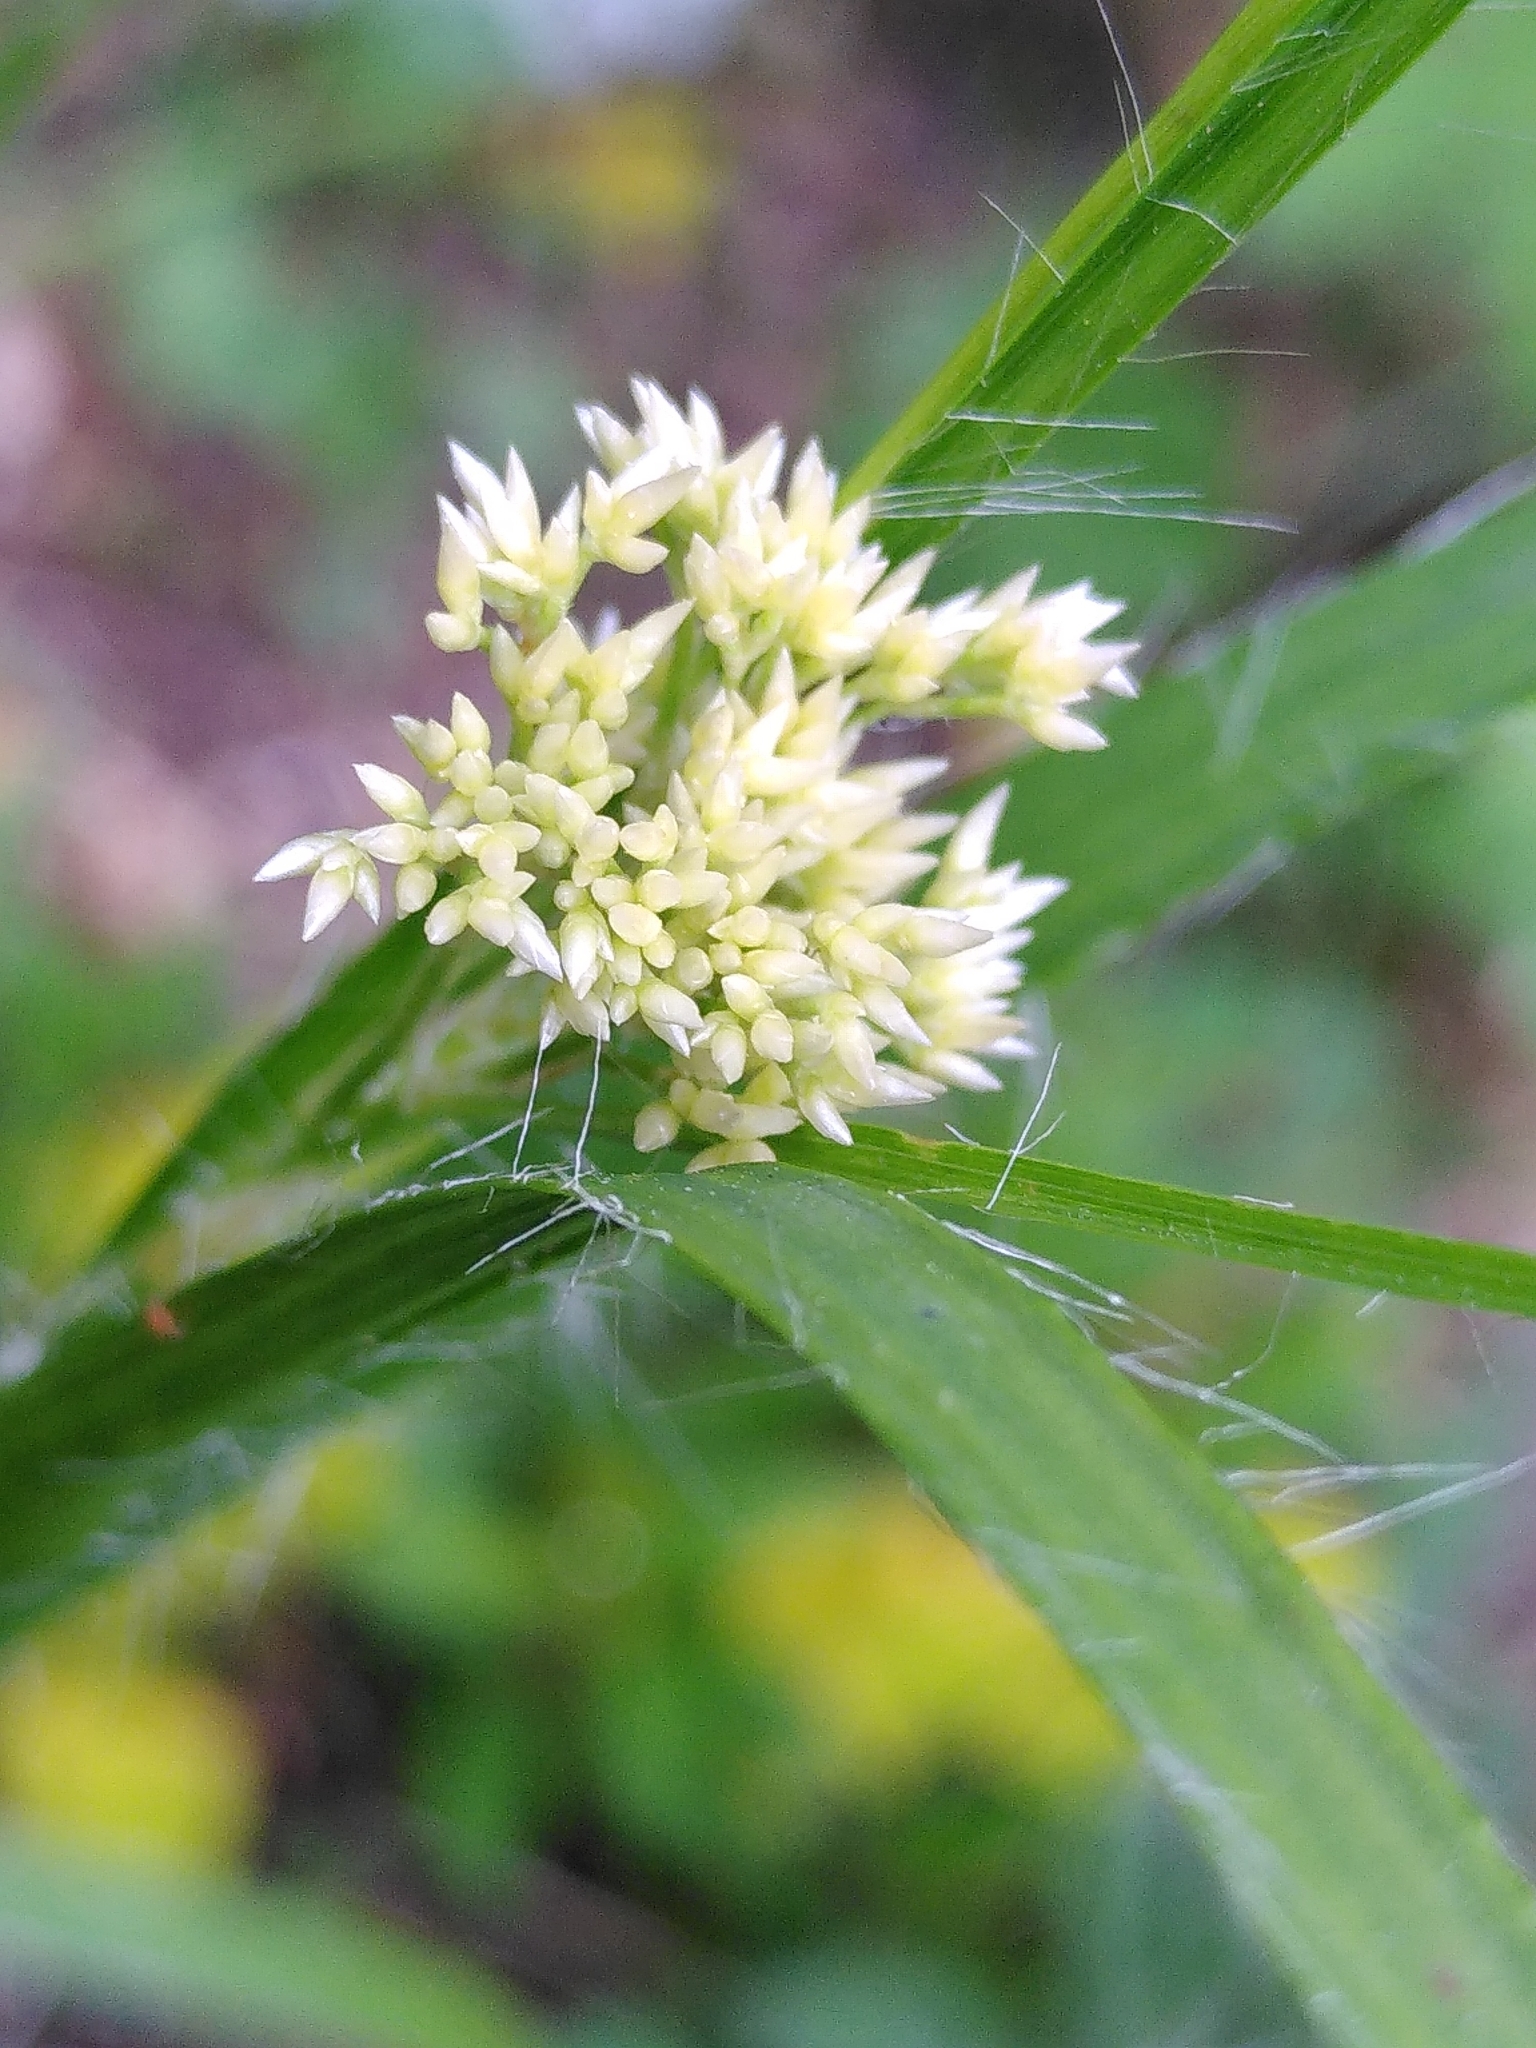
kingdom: Plantae
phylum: Tracheophyta
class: Liliopsida
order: Poales
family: Juncaceae
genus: Luzula
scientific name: Luzula nivea
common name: Snow-white wood-rush
